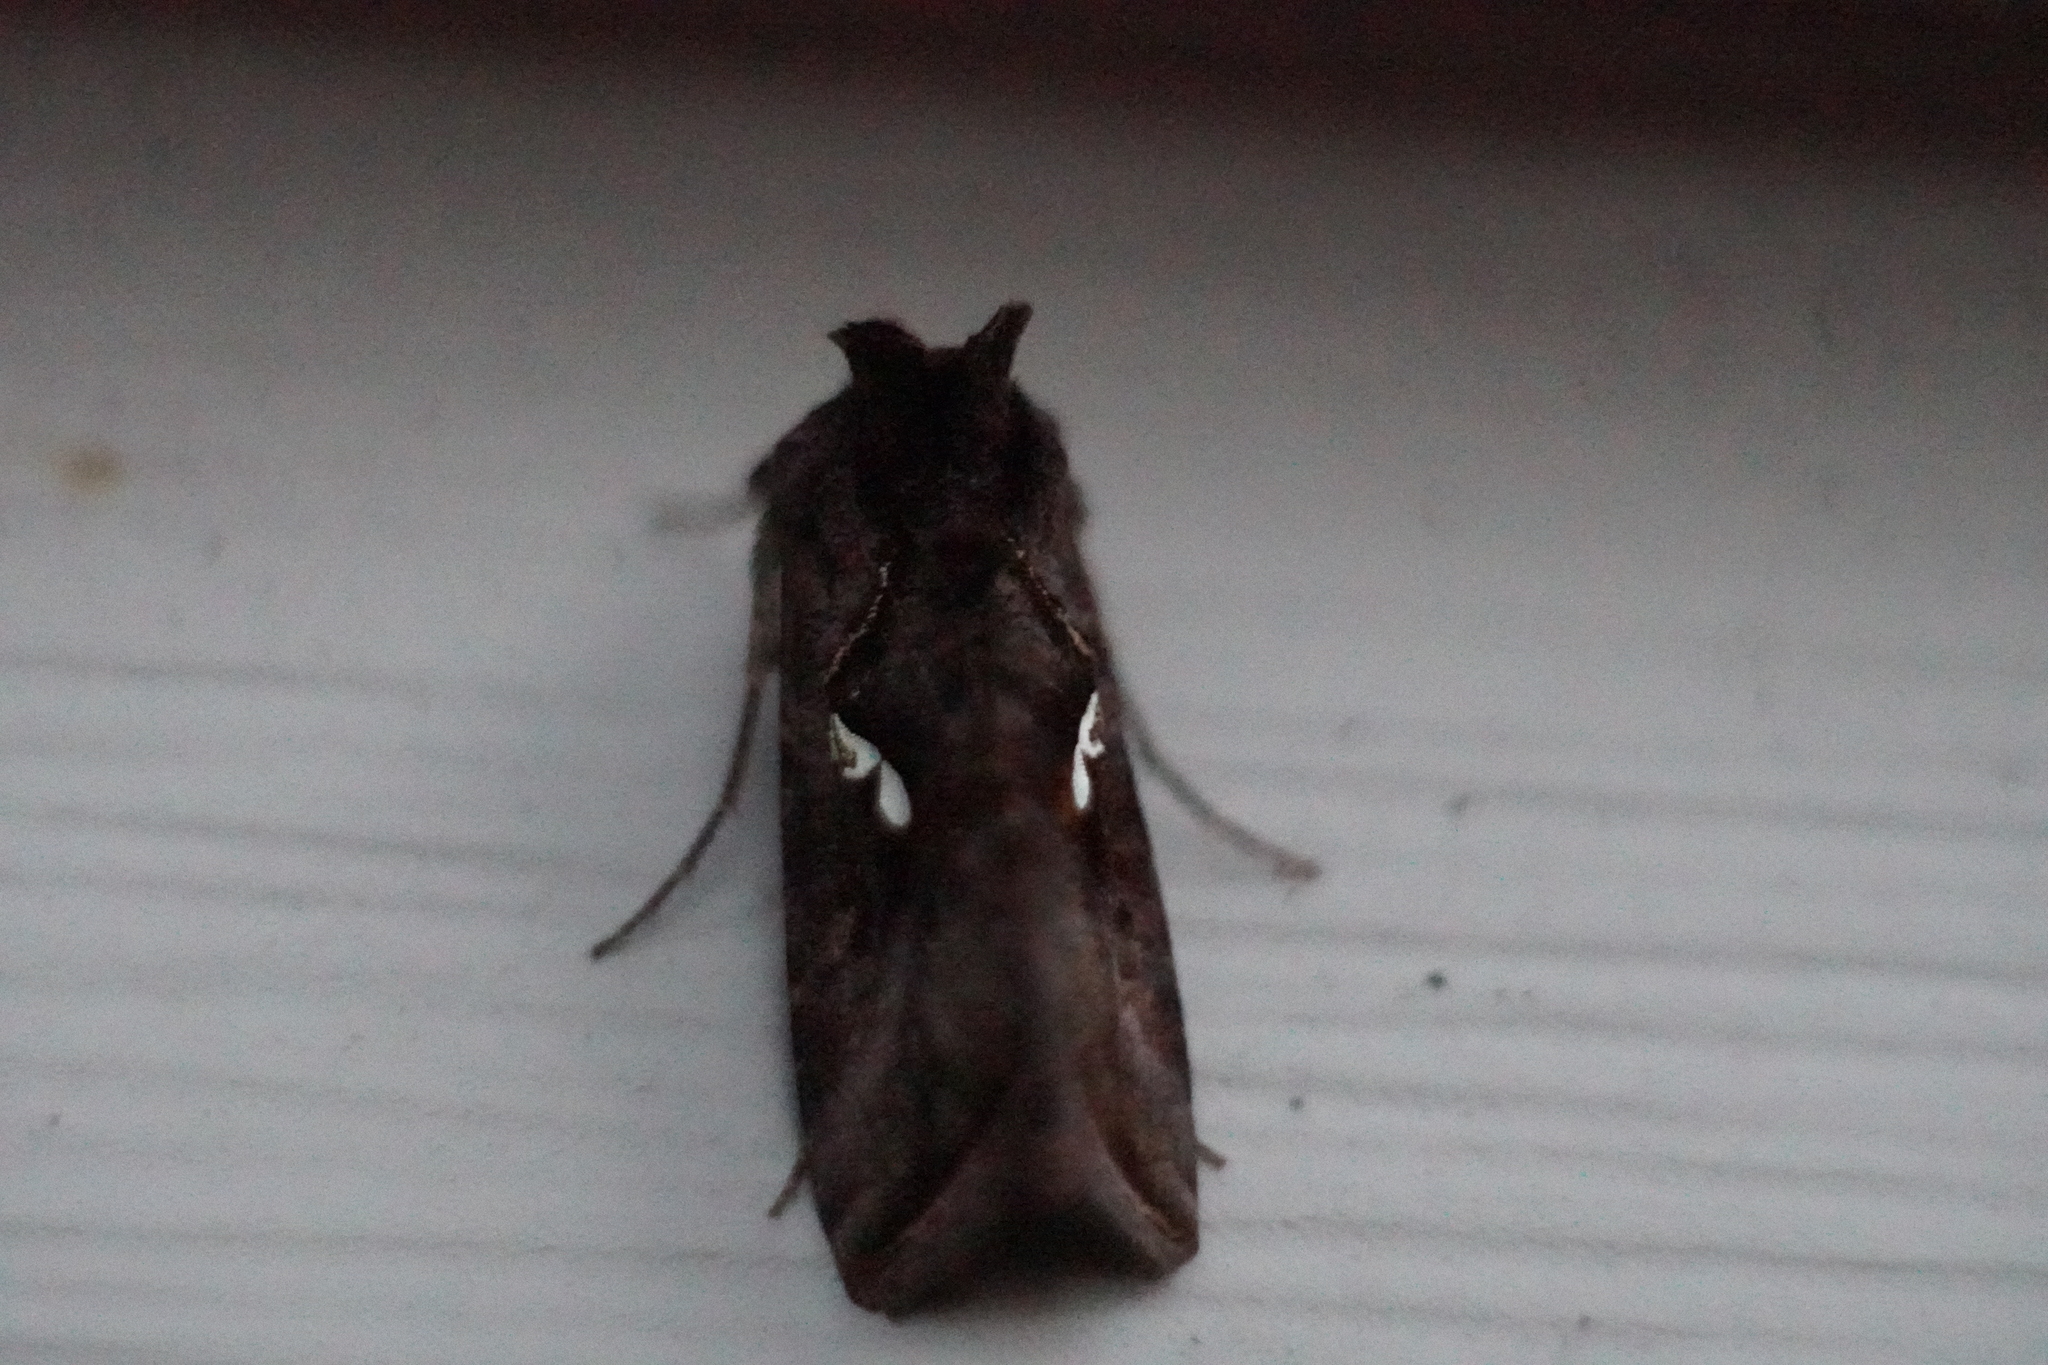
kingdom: Animalia
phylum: Arthropoda
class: Insecta
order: Lepidoptera
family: Noctuidae
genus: Megalographa
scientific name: Megalographa biloba
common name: Cutworm
